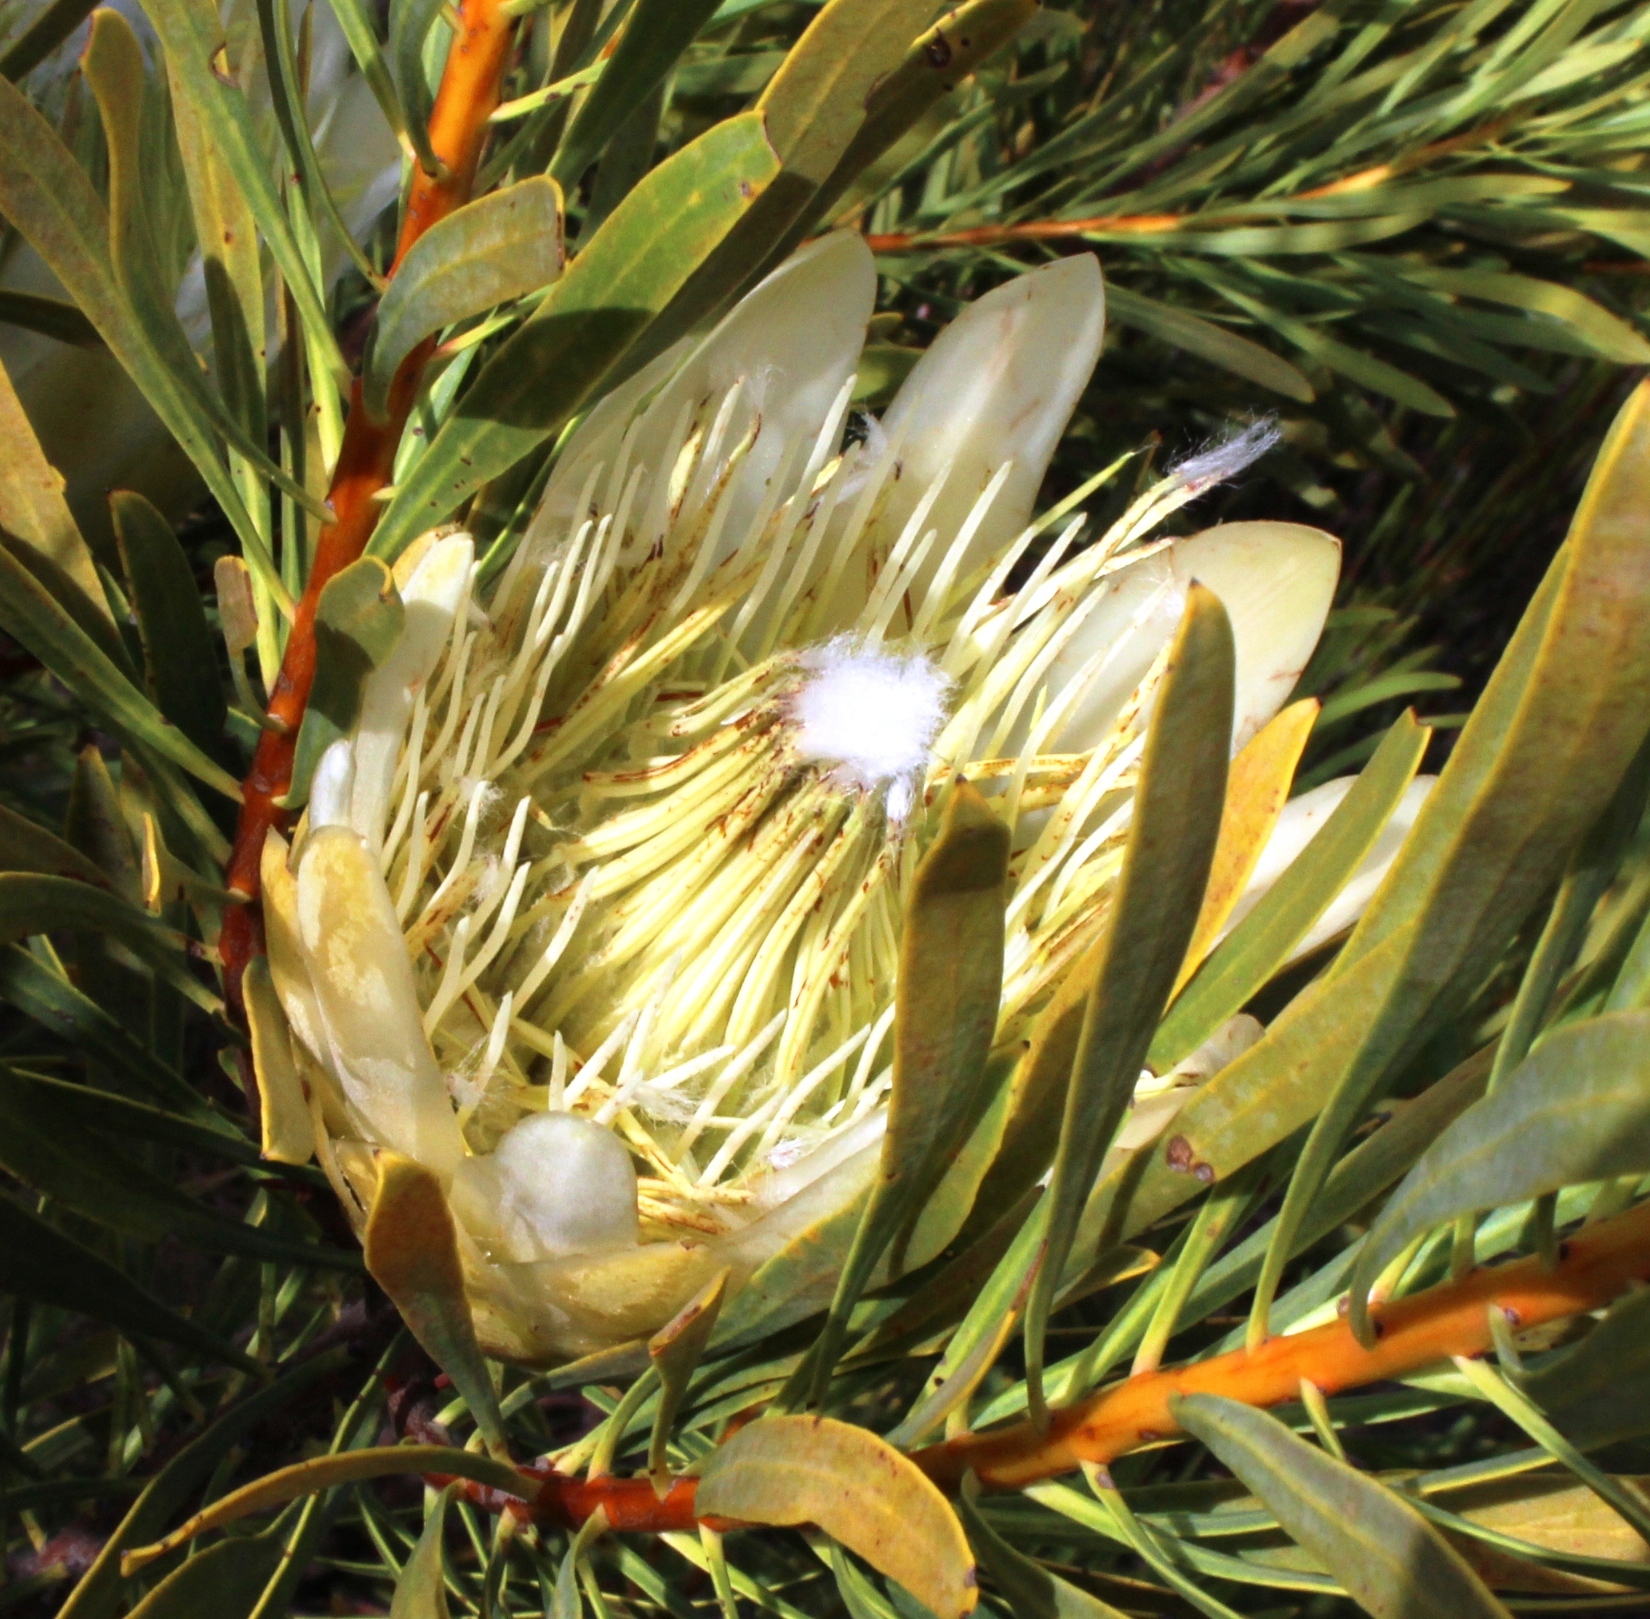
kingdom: Plantae
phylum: Tracheophyta
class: Magnoliopsida
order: Proteales
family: Proteaceae
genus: Protea
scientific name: Protea repens
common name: Sugarbush
